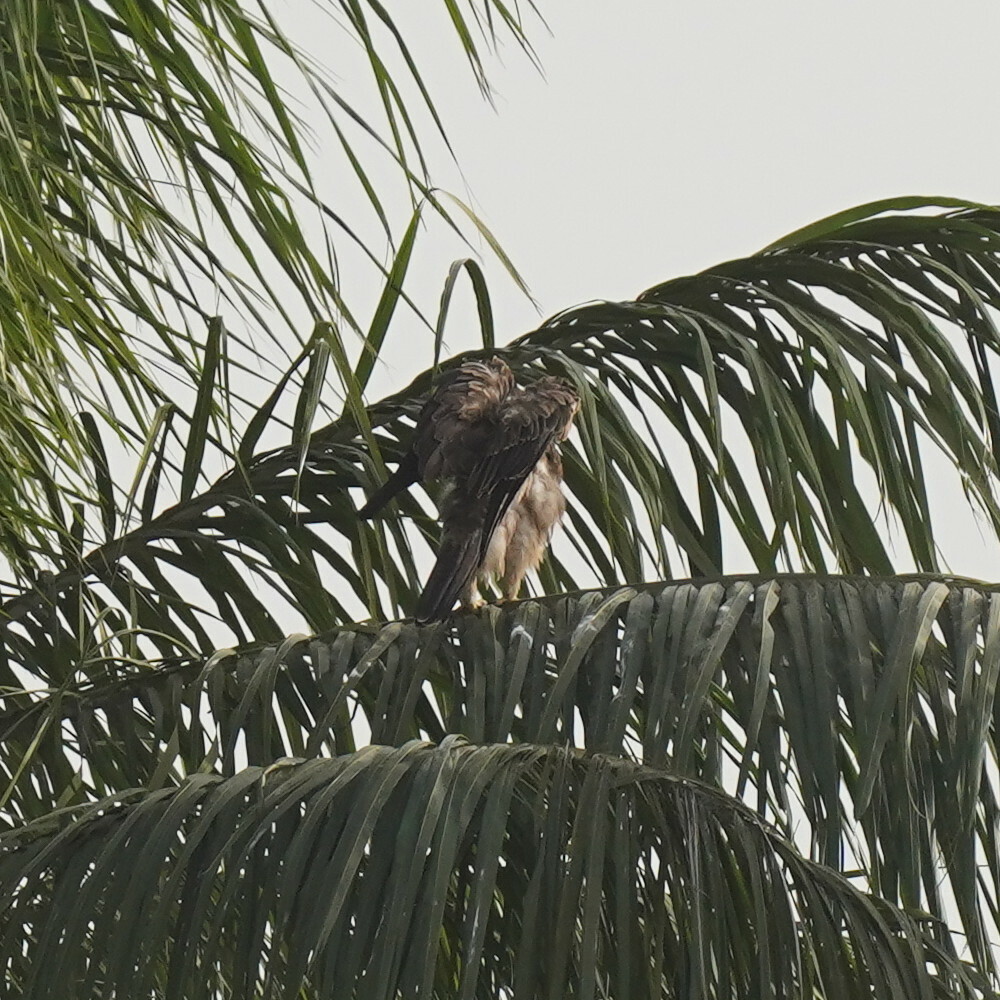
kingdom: Animalia
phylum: Chordata
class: Aves
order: Accipitriformes
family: Accipitridae
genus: Hieraaetus
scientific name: Hieraaetus wahlbergi
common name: Wahlberg's eagle
